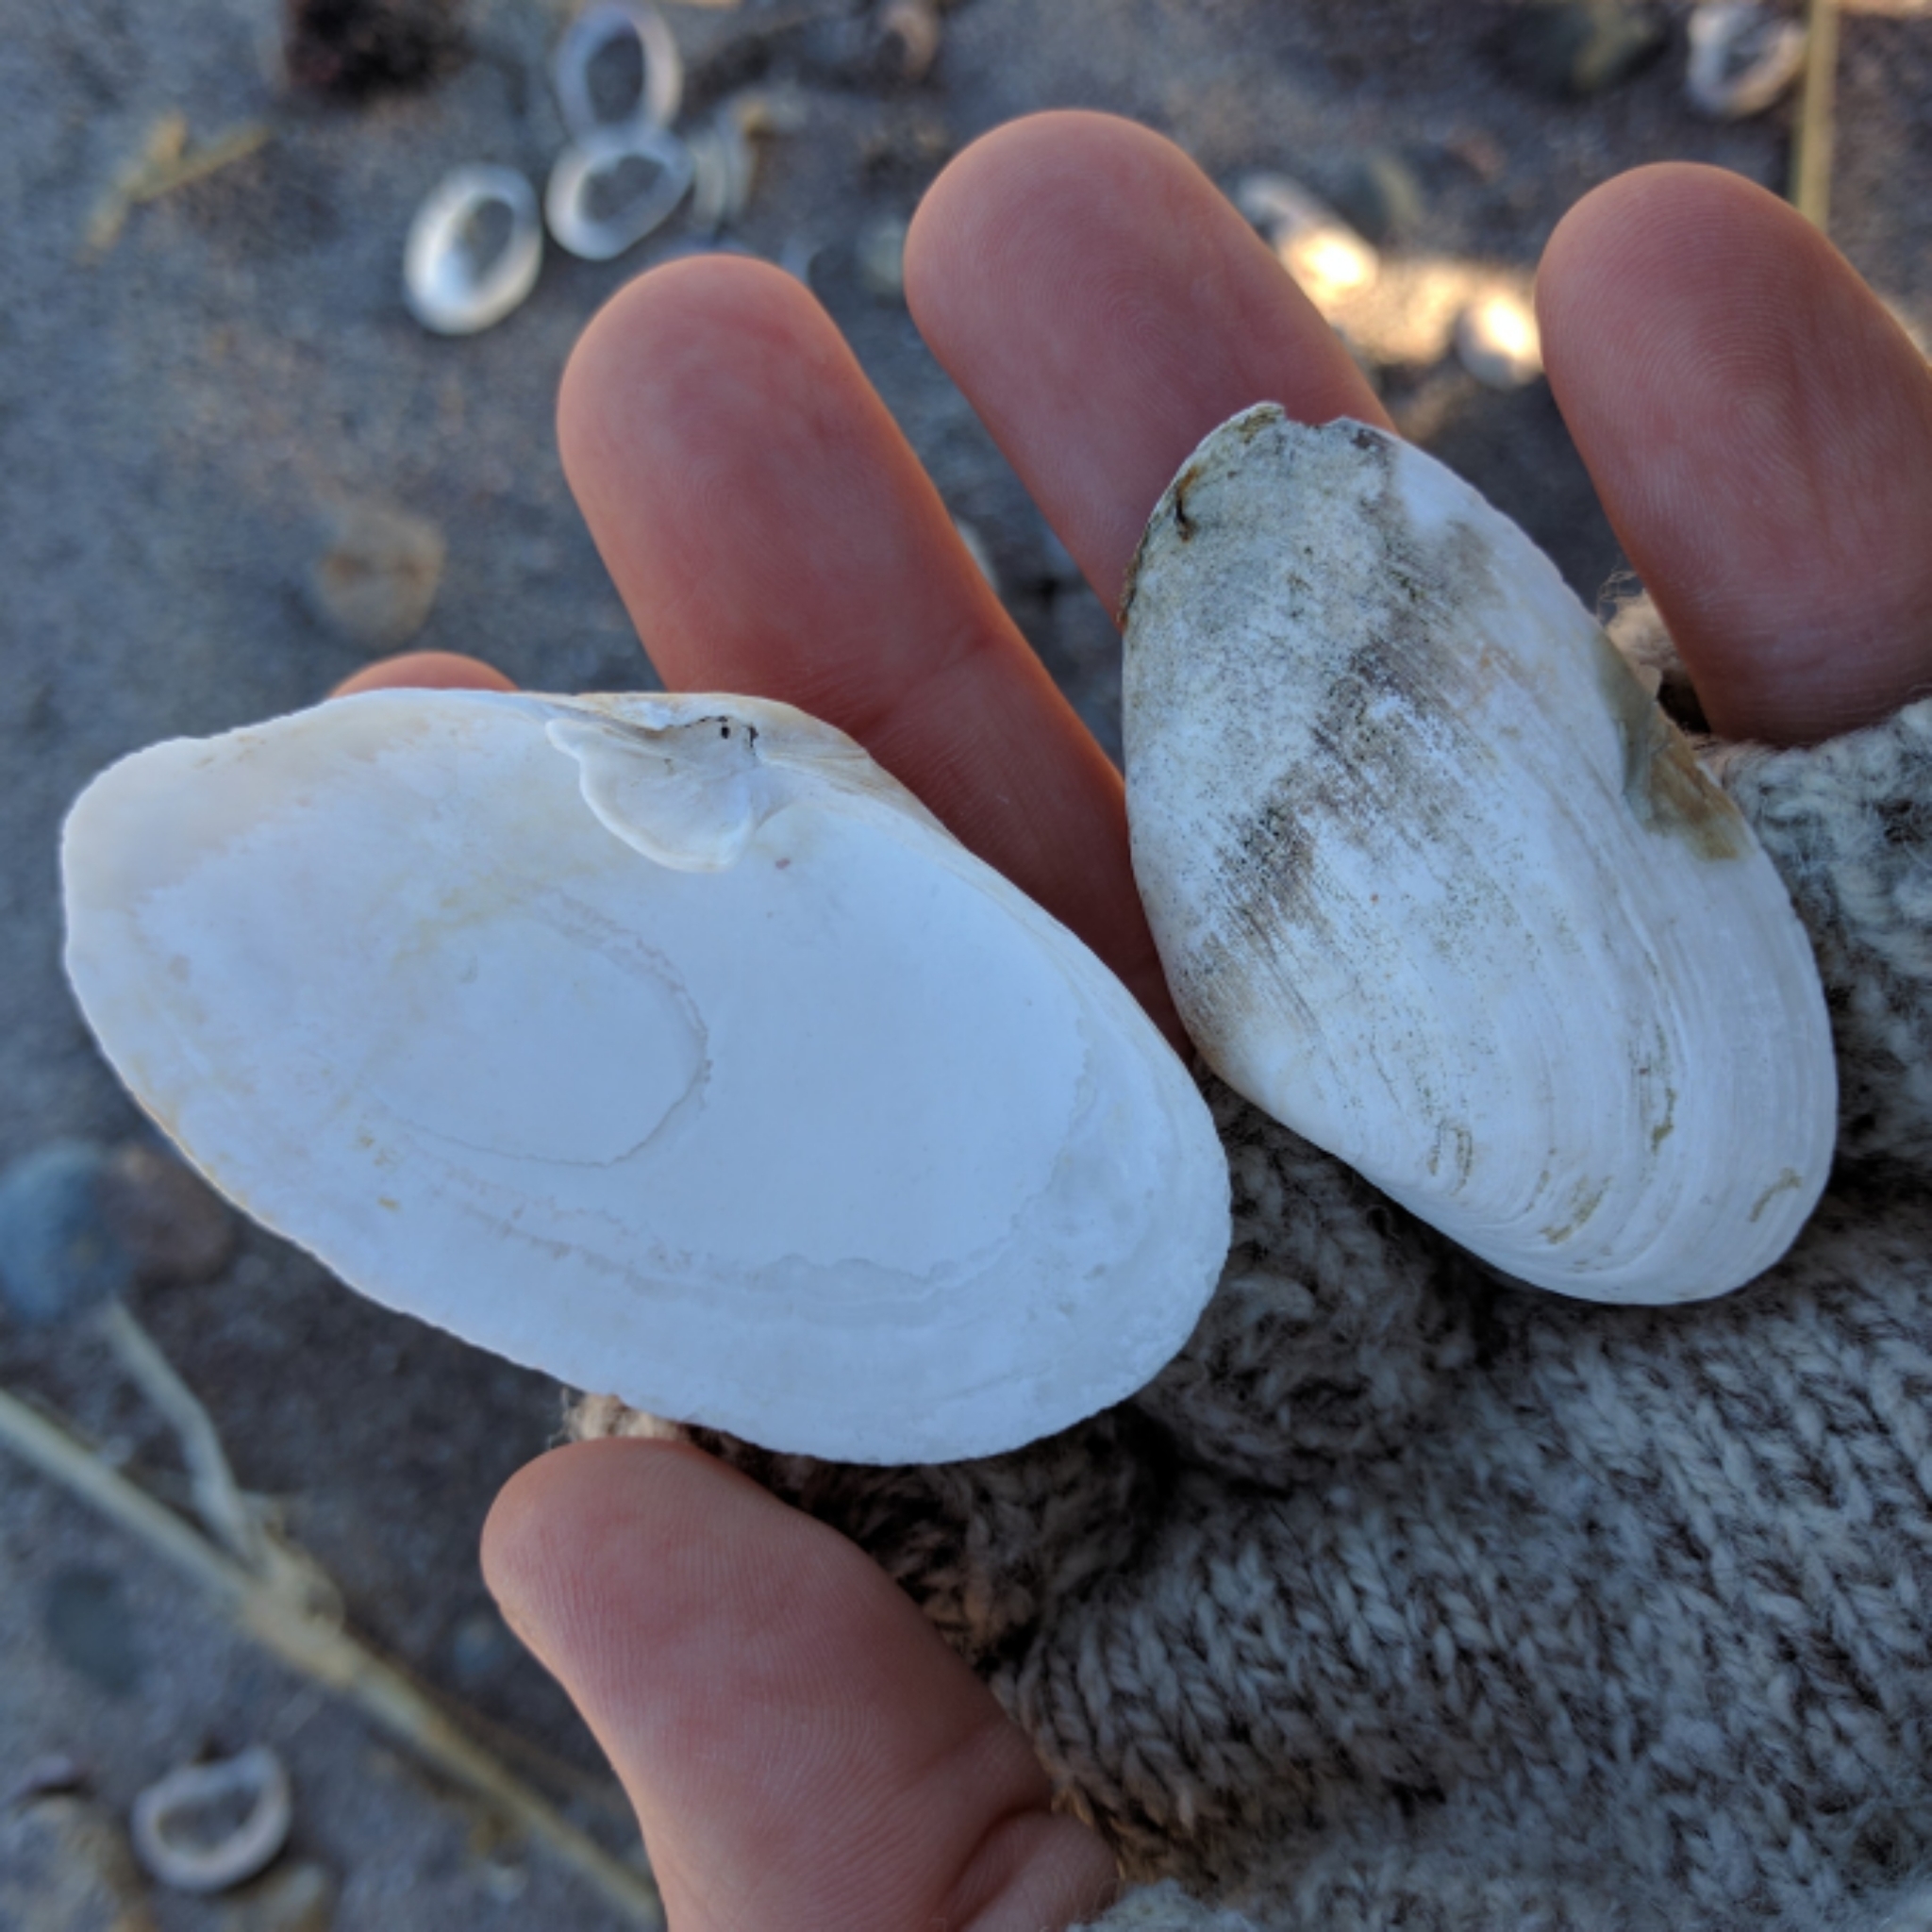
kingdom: Animalia
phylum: Mollusca
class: Bivalvia
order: Myida
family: Myidae
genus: Mya
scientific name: Mya arenaria
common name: Soft-shelled clam
